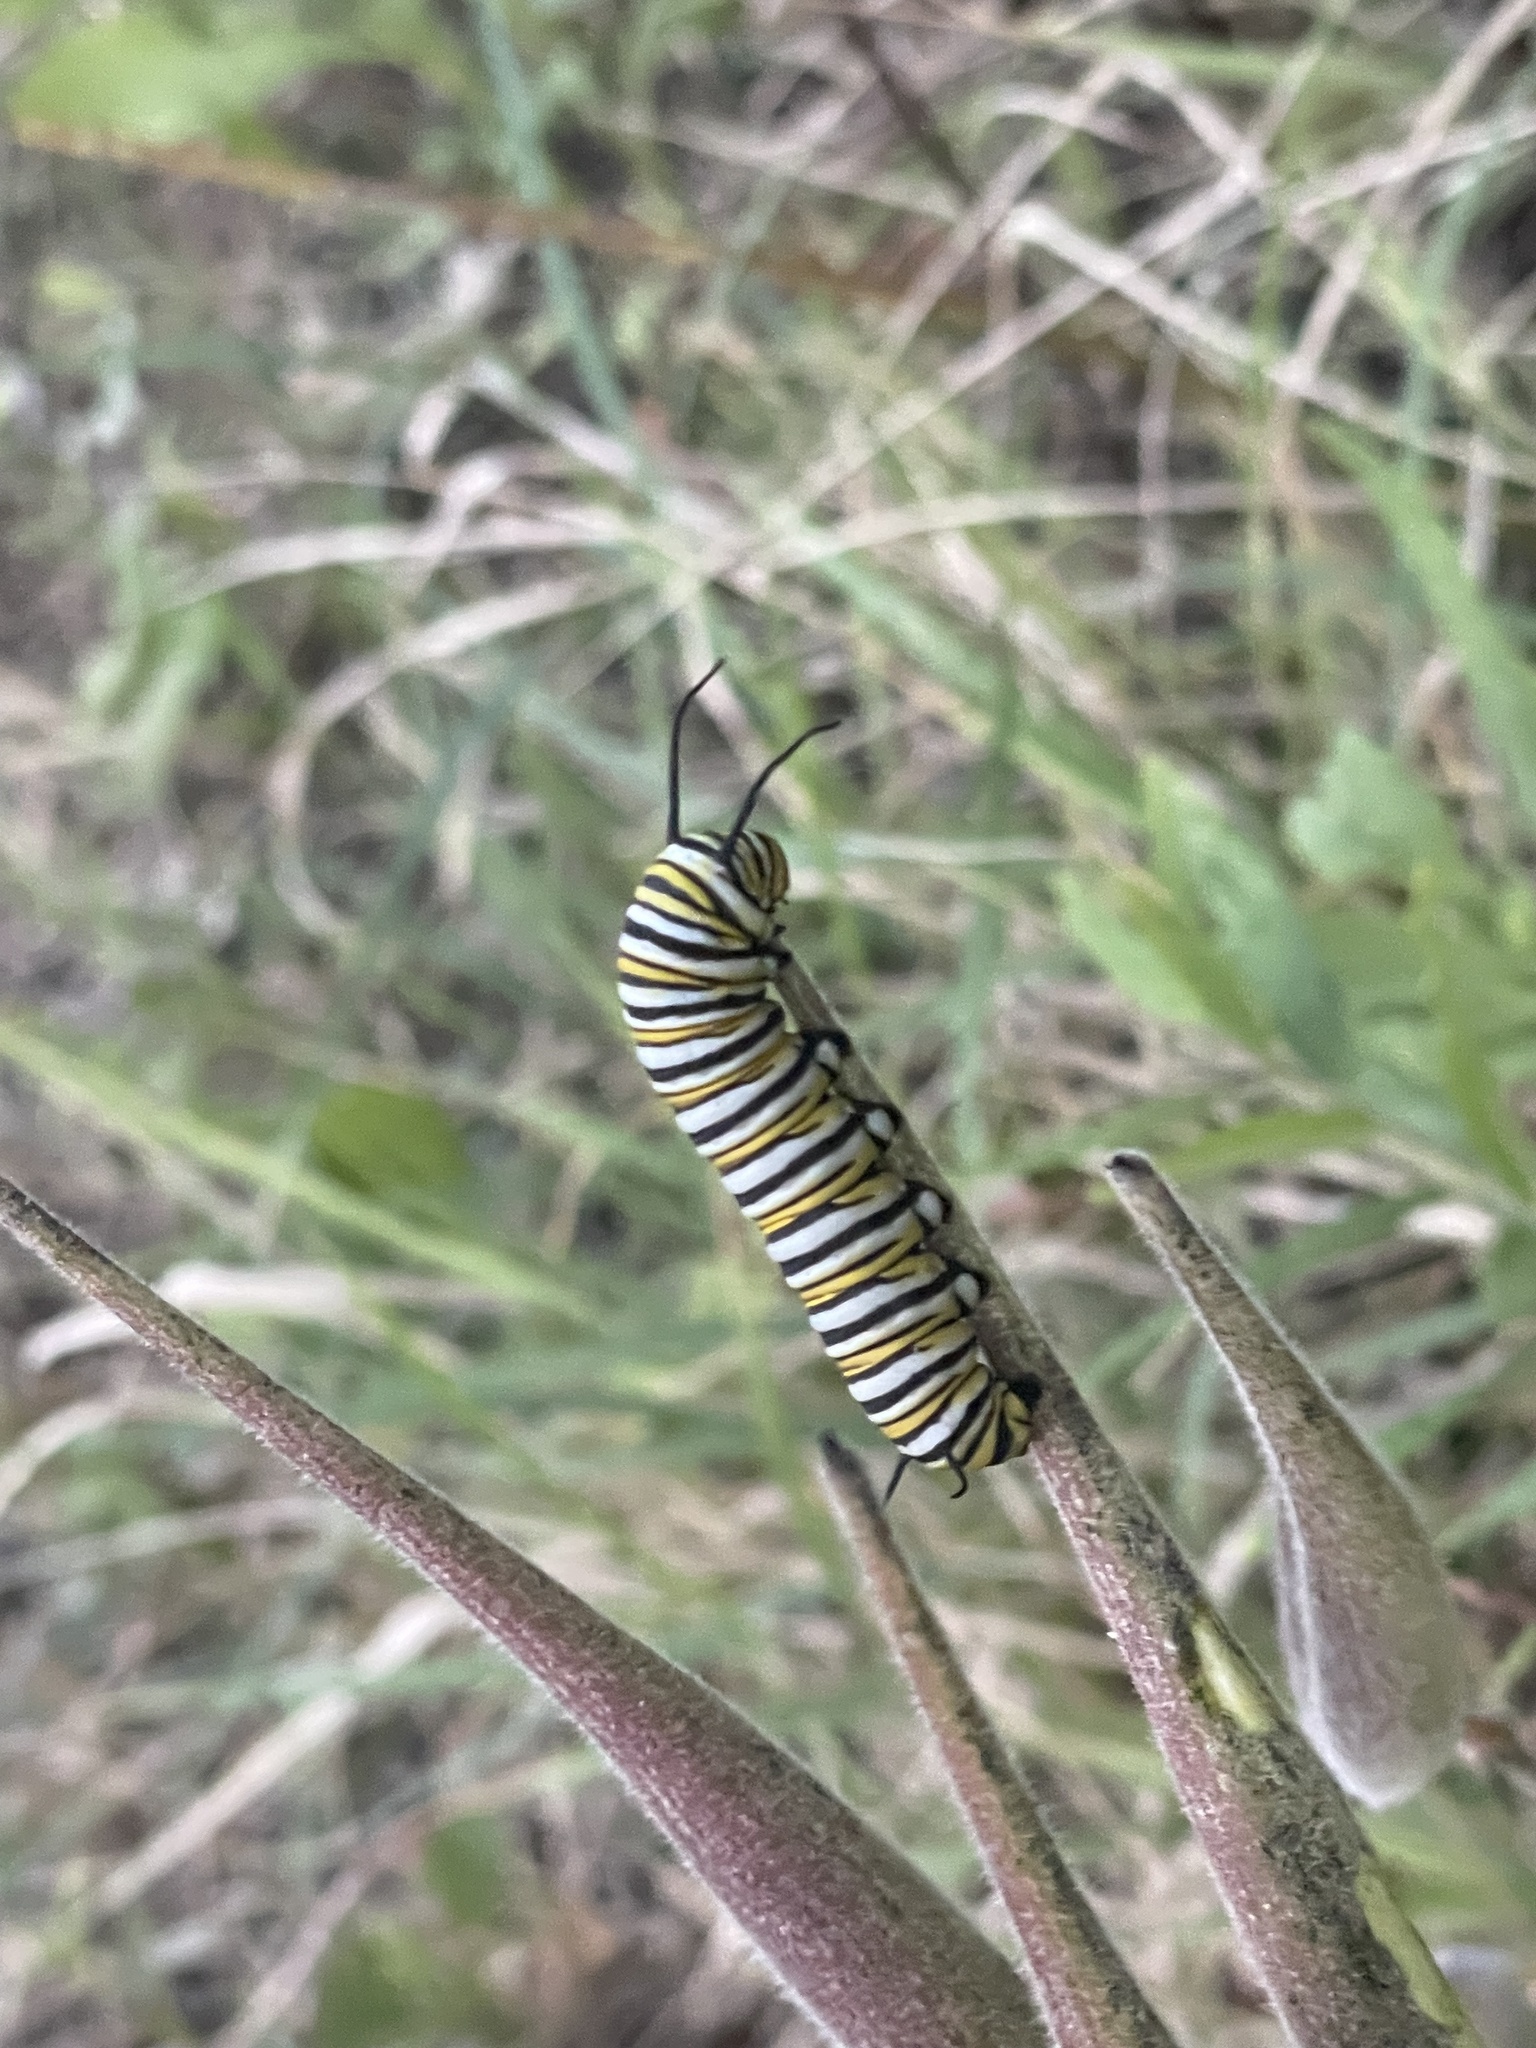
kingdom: Animalia
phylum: Arthropoda
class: Insecta
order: Lepidoptera
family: Nymphalidae
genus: Danaus
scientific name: Danaus plexippus
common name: Monarch
